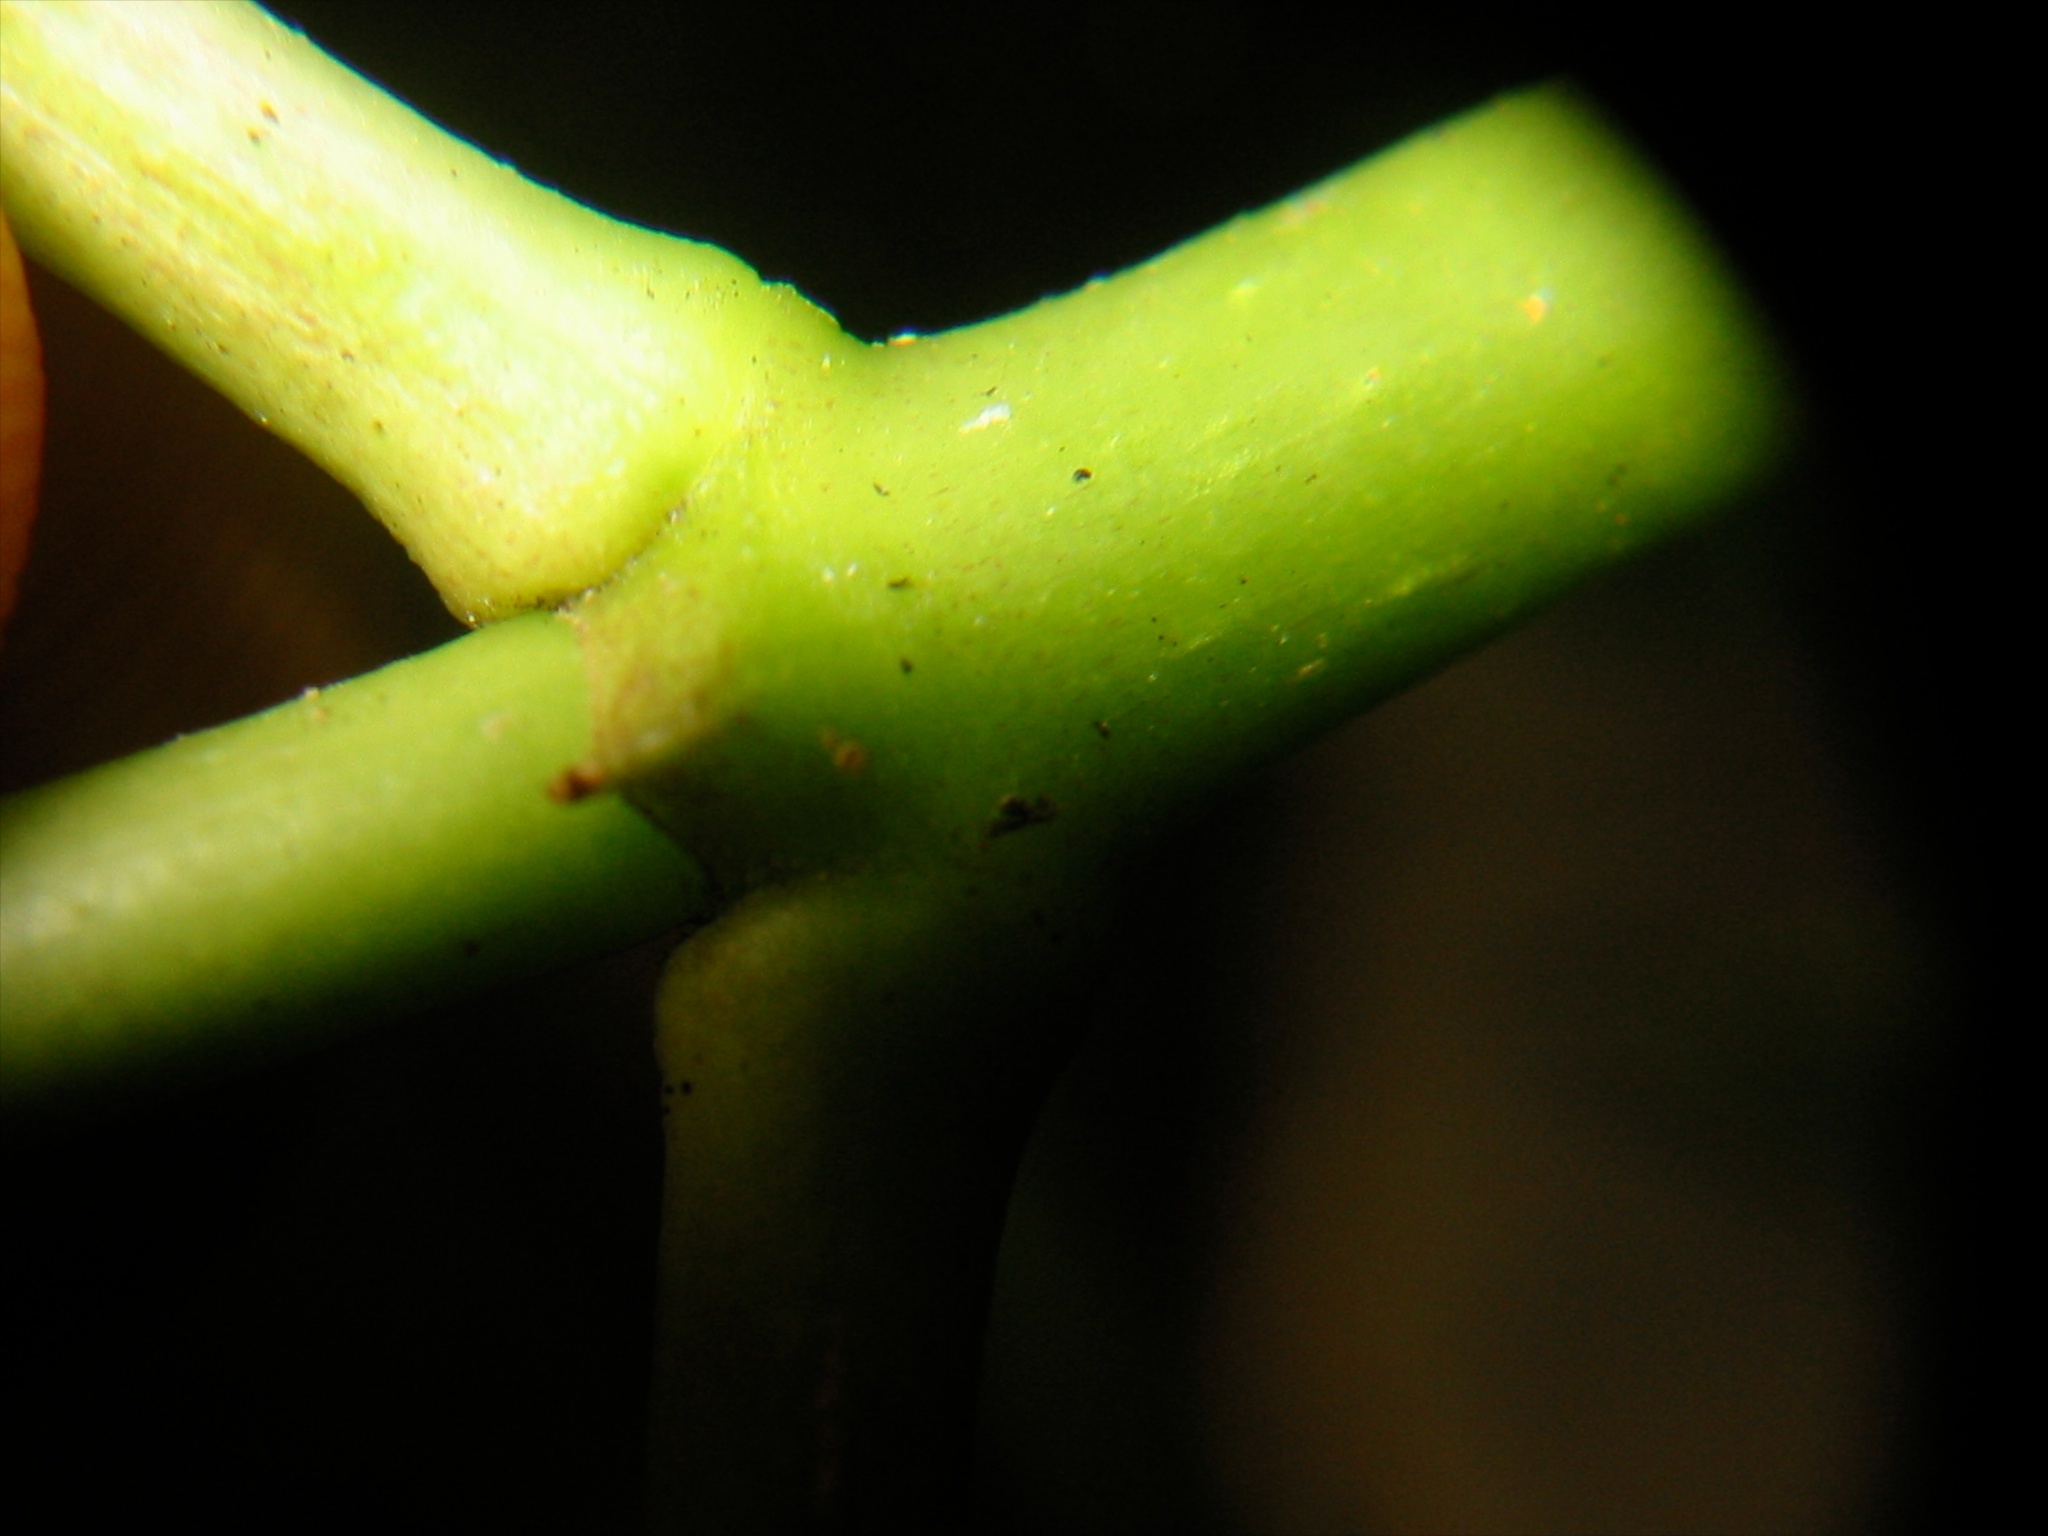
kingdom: Plantae
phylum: Tracheophyta
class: Magnoliopsida
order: Gentianales
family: Rubiaceae
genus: Coprosma
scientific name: Coprosma lucida
